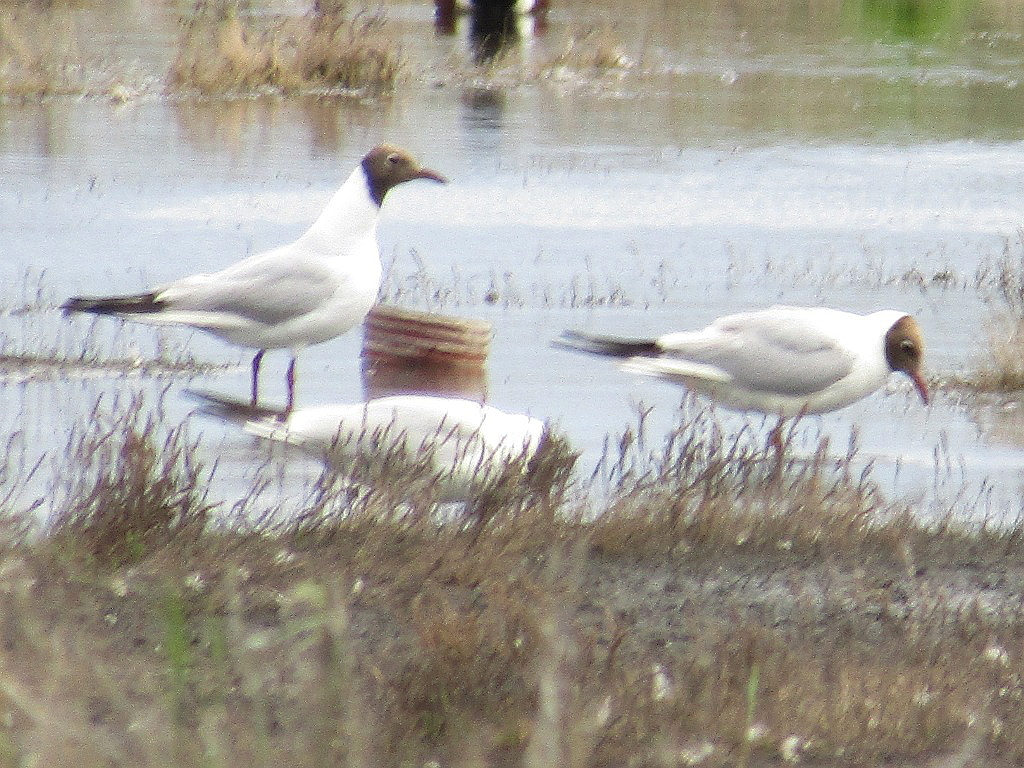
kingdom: Animalia
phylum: Chordata
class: Aves
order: Charadriiformes
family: Laridae
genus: Chroicocephalus
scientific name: Chroicocephalus ridibundus
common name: Black-headed gull
